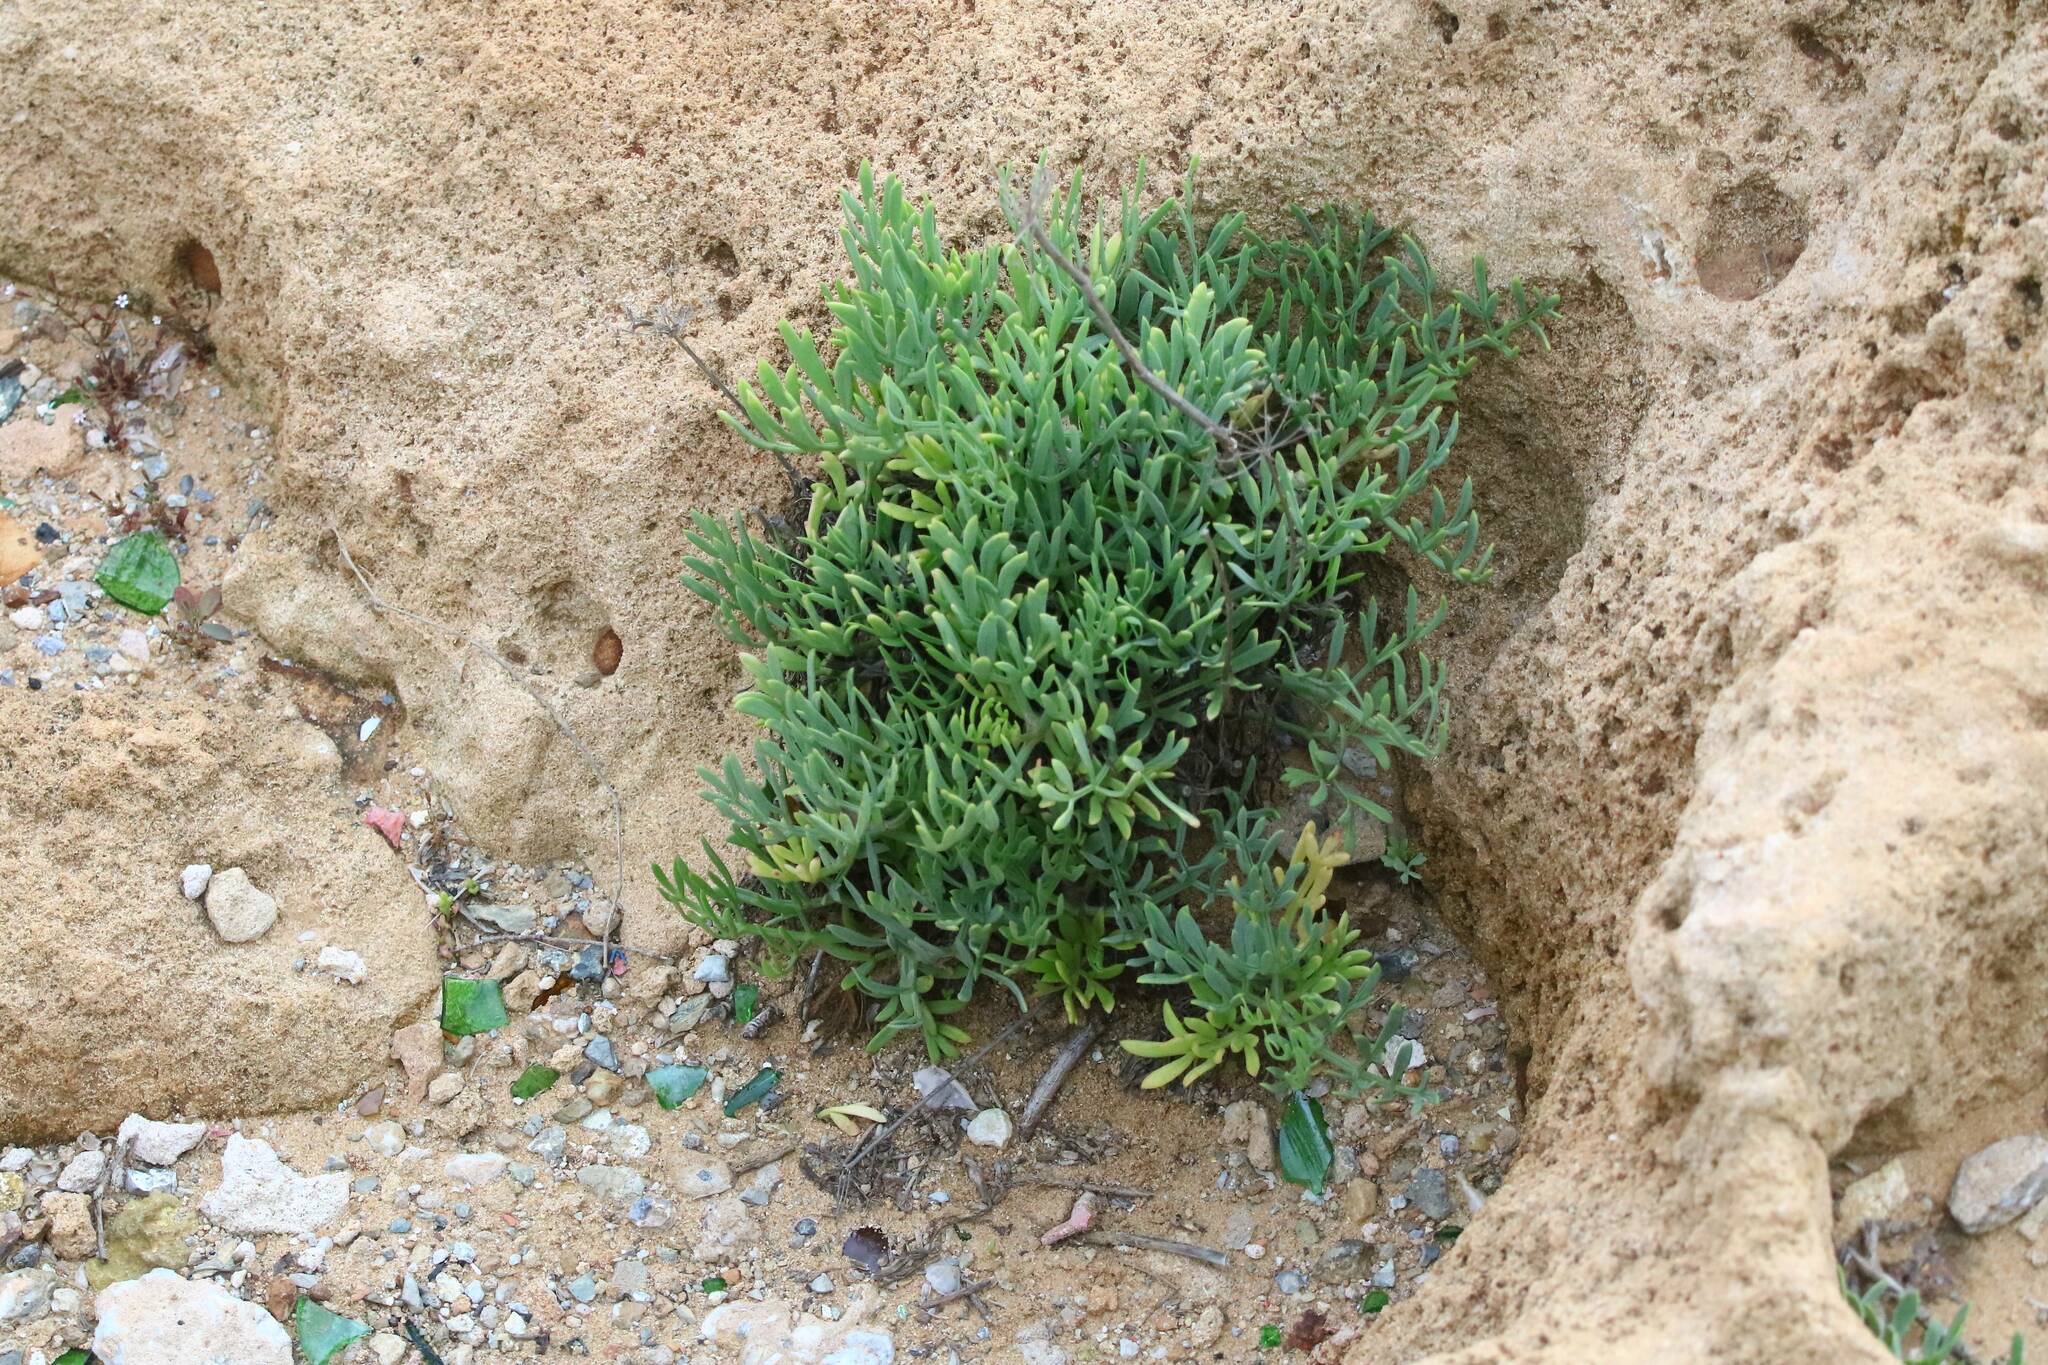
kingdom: Plantae
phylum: Tracheophyta
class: Magnoliopsida
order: Apiales
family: Apiaceae
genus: Crithmum
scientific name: Crithmum maritimum
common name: Rock samphire
